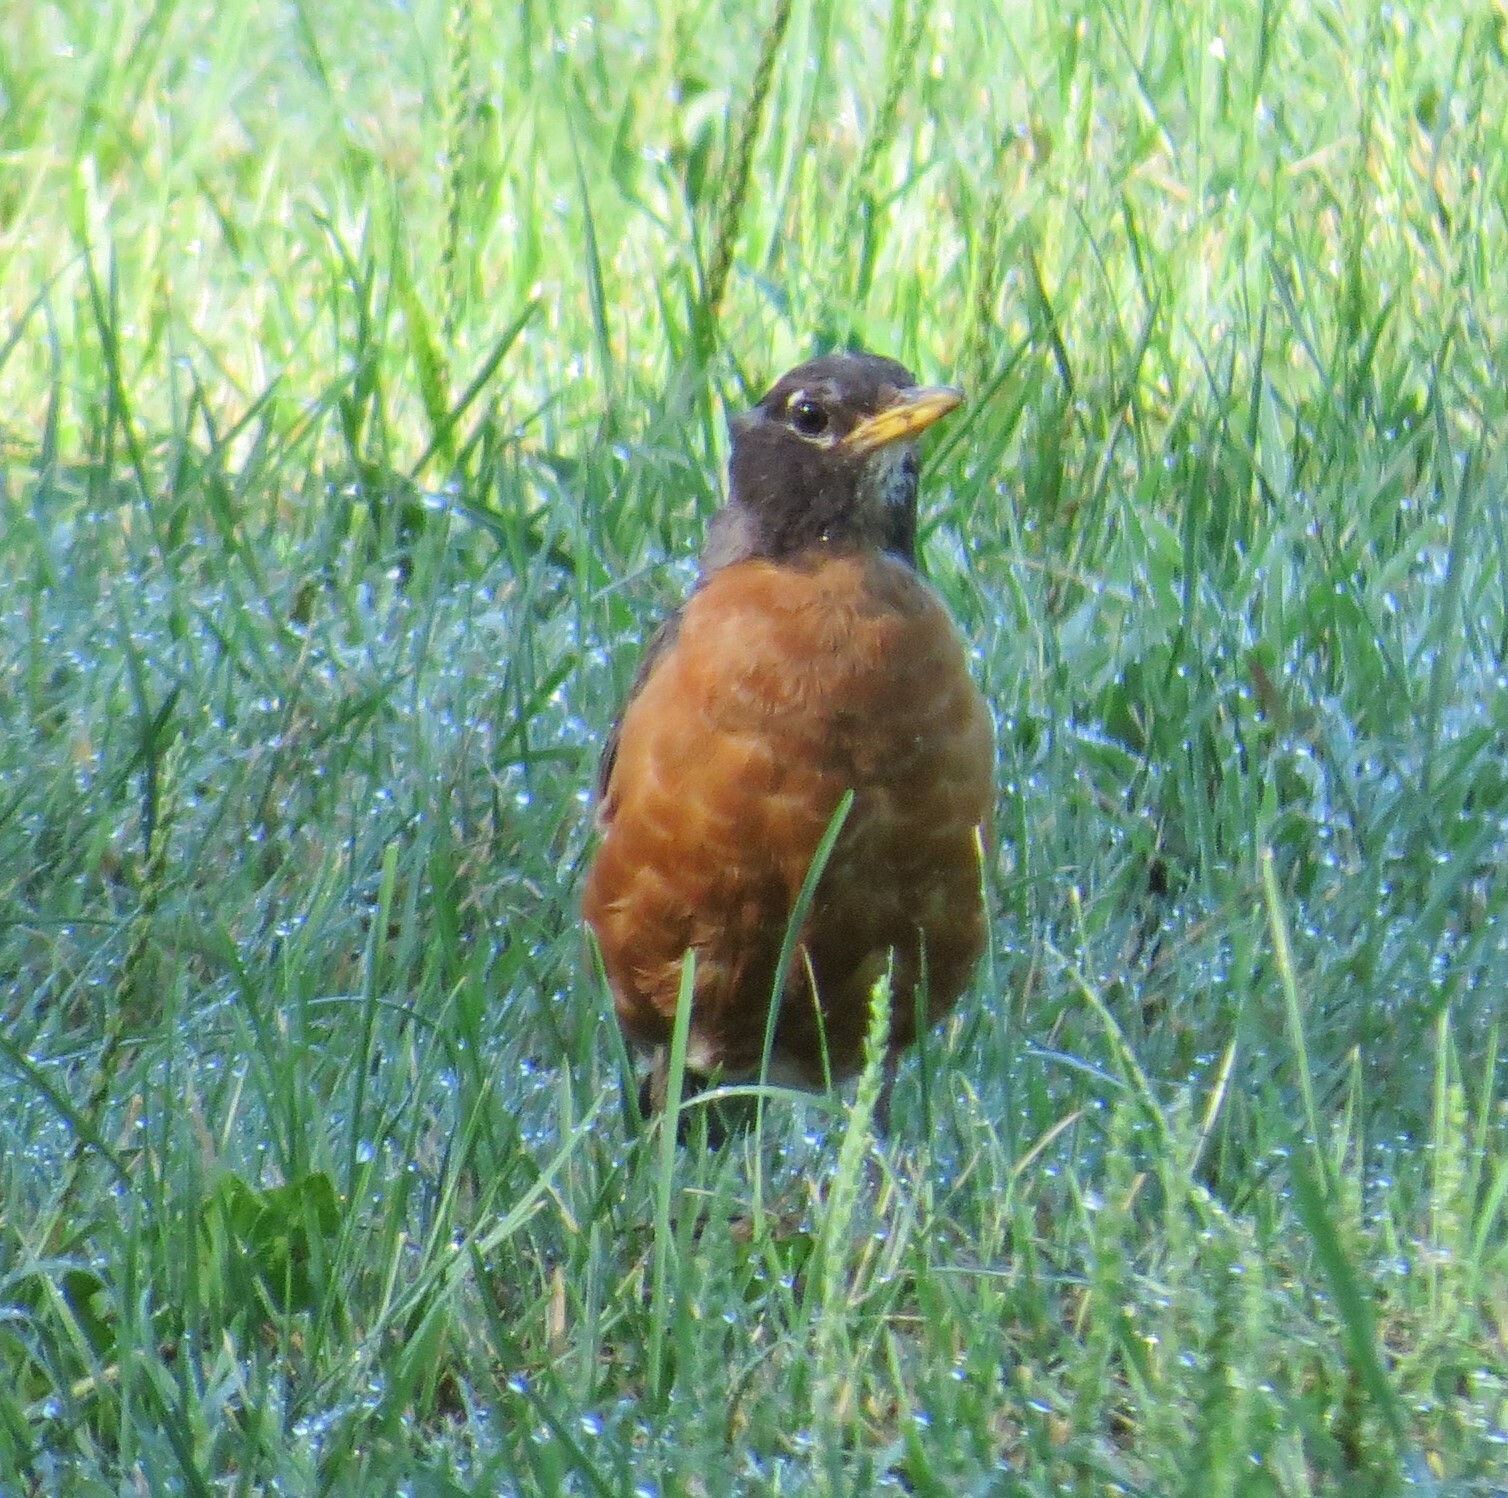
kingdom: Animalia
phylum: Chordata
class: Aves
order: Passeriformes
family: Turdidae
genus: Turdus
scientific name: Turdus migratorius
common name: American robin
